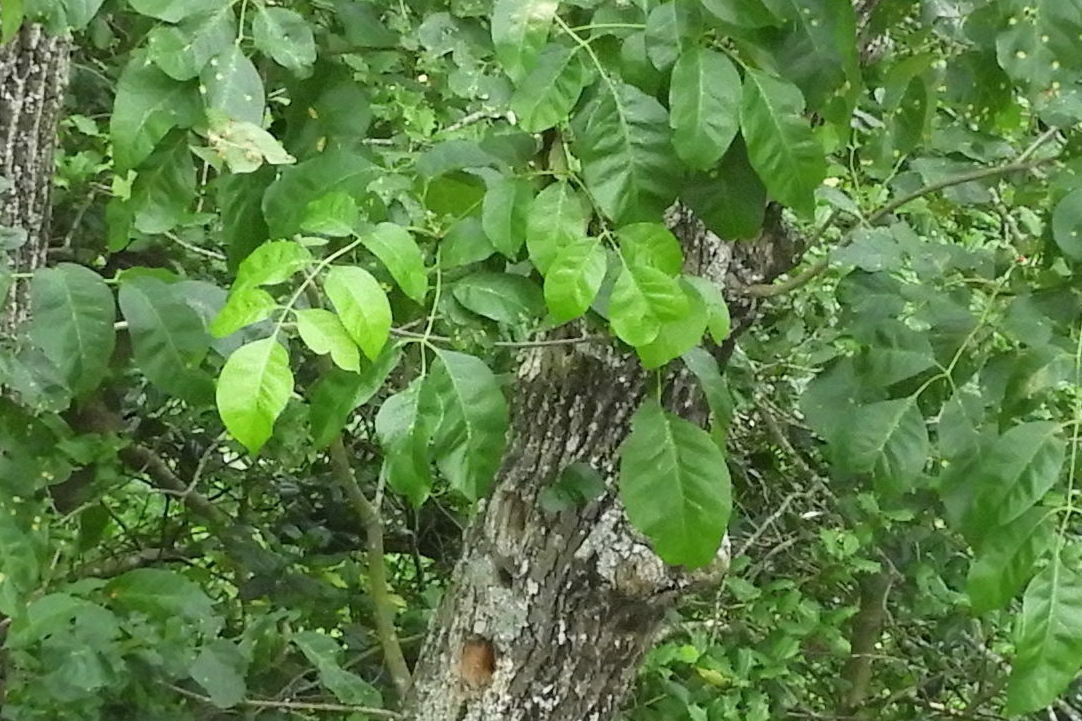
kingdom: Fungi
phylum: Basidiomycota
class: Pucciniomycetes
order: Pucciniales
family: Pucciniaceae
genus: Puccinia
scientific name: Puccinia sparganioidis
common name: Ash rust
